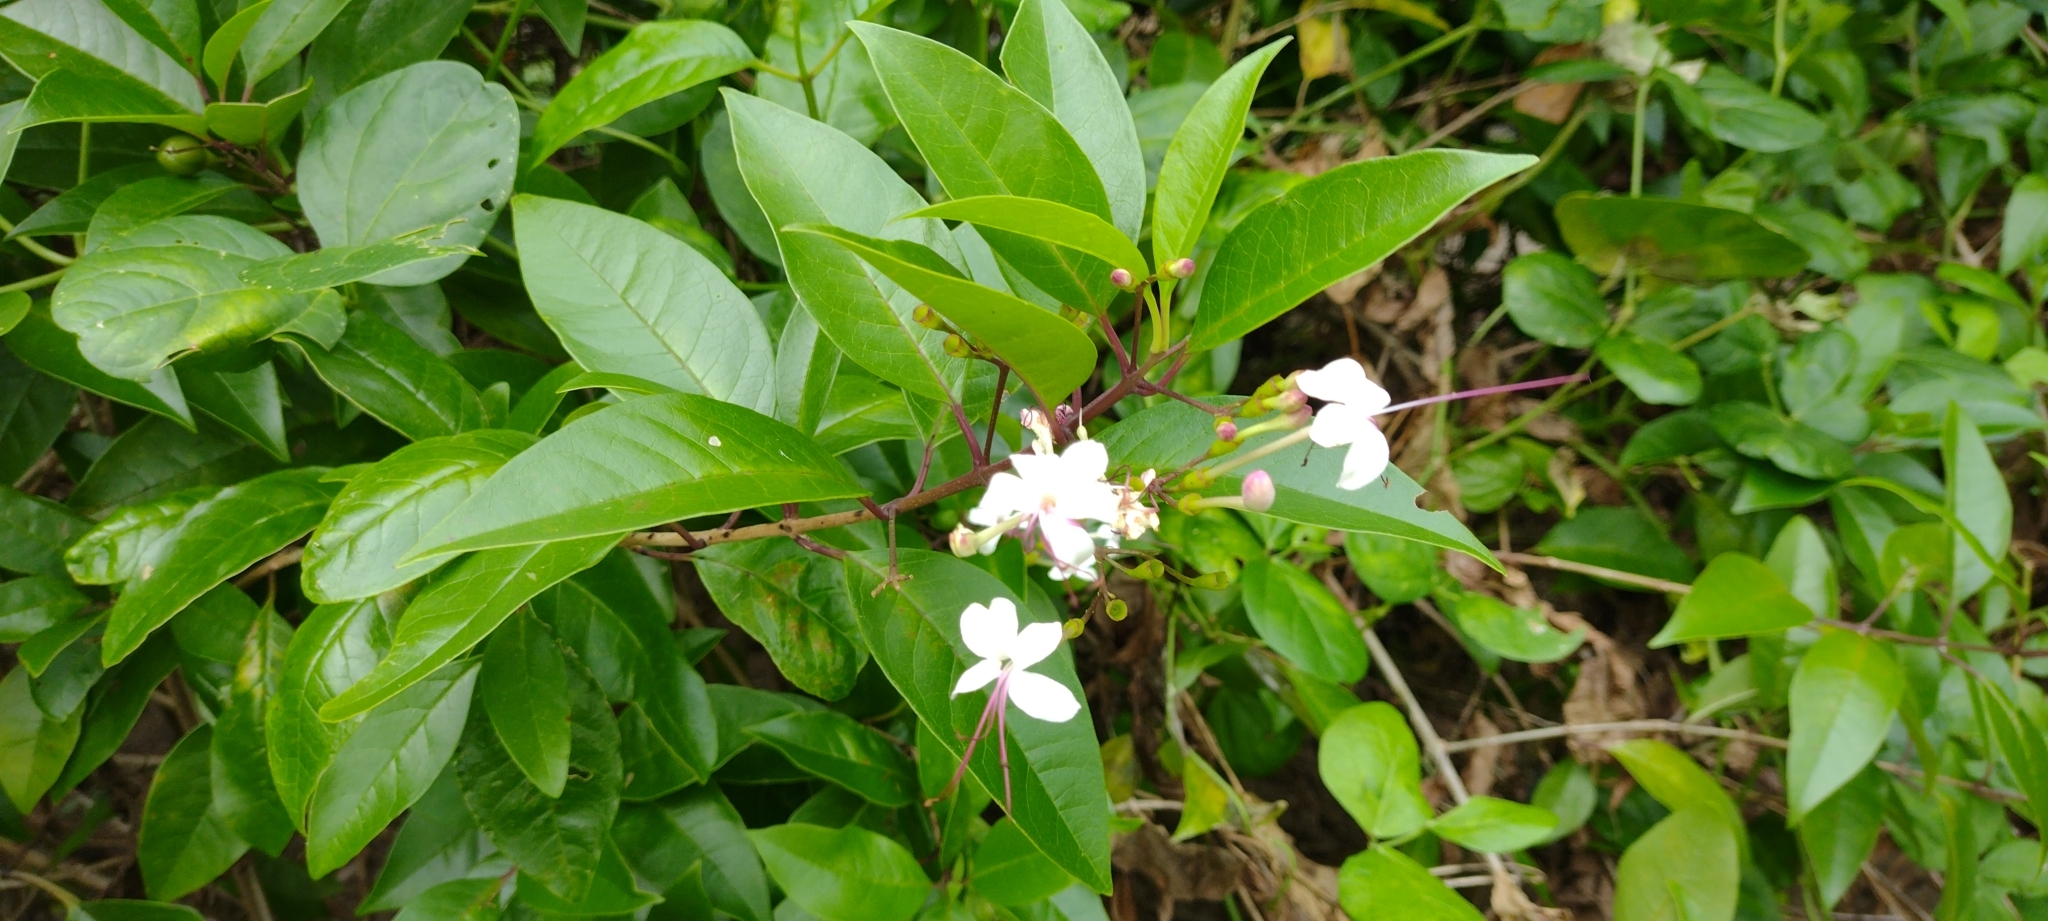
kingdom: Plantae
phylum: Tracheophyta
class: Magnoliopsida
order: Lamiales
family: Lamiaceae
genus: Volkameria
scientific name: Volkameria inermis
